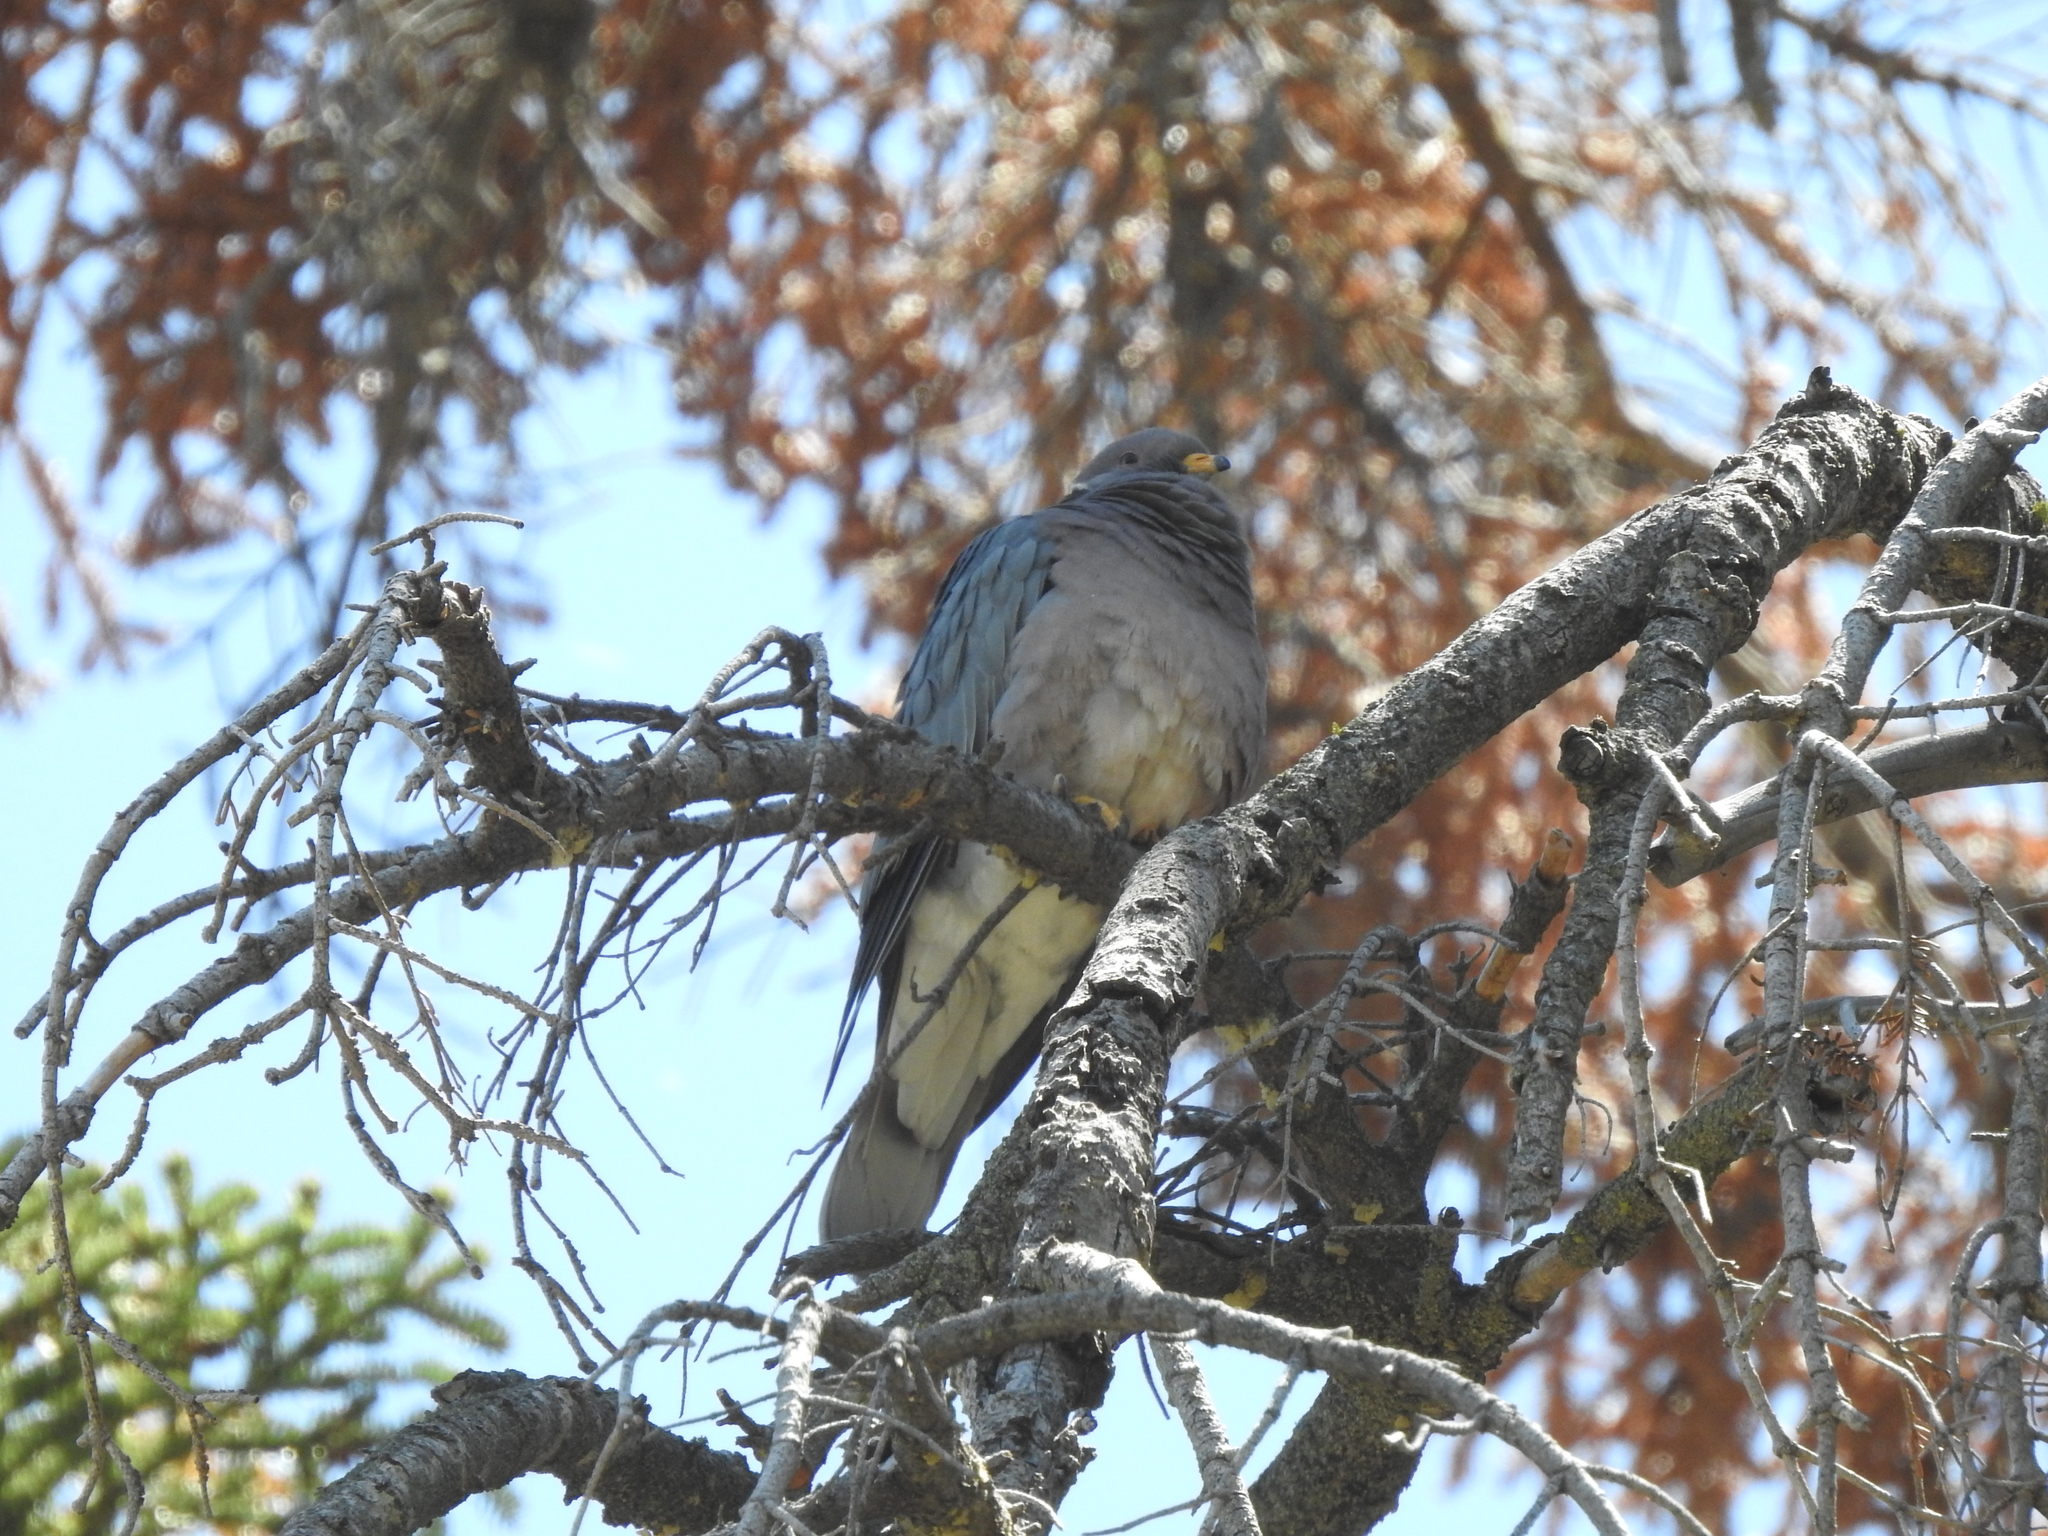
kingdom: Animalia
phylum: Chordata
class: Aves
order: Columbiformes
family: Columbidae
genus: Patagioenas
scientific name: Patagioenas fasciata
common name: Band-tailed pigeon
